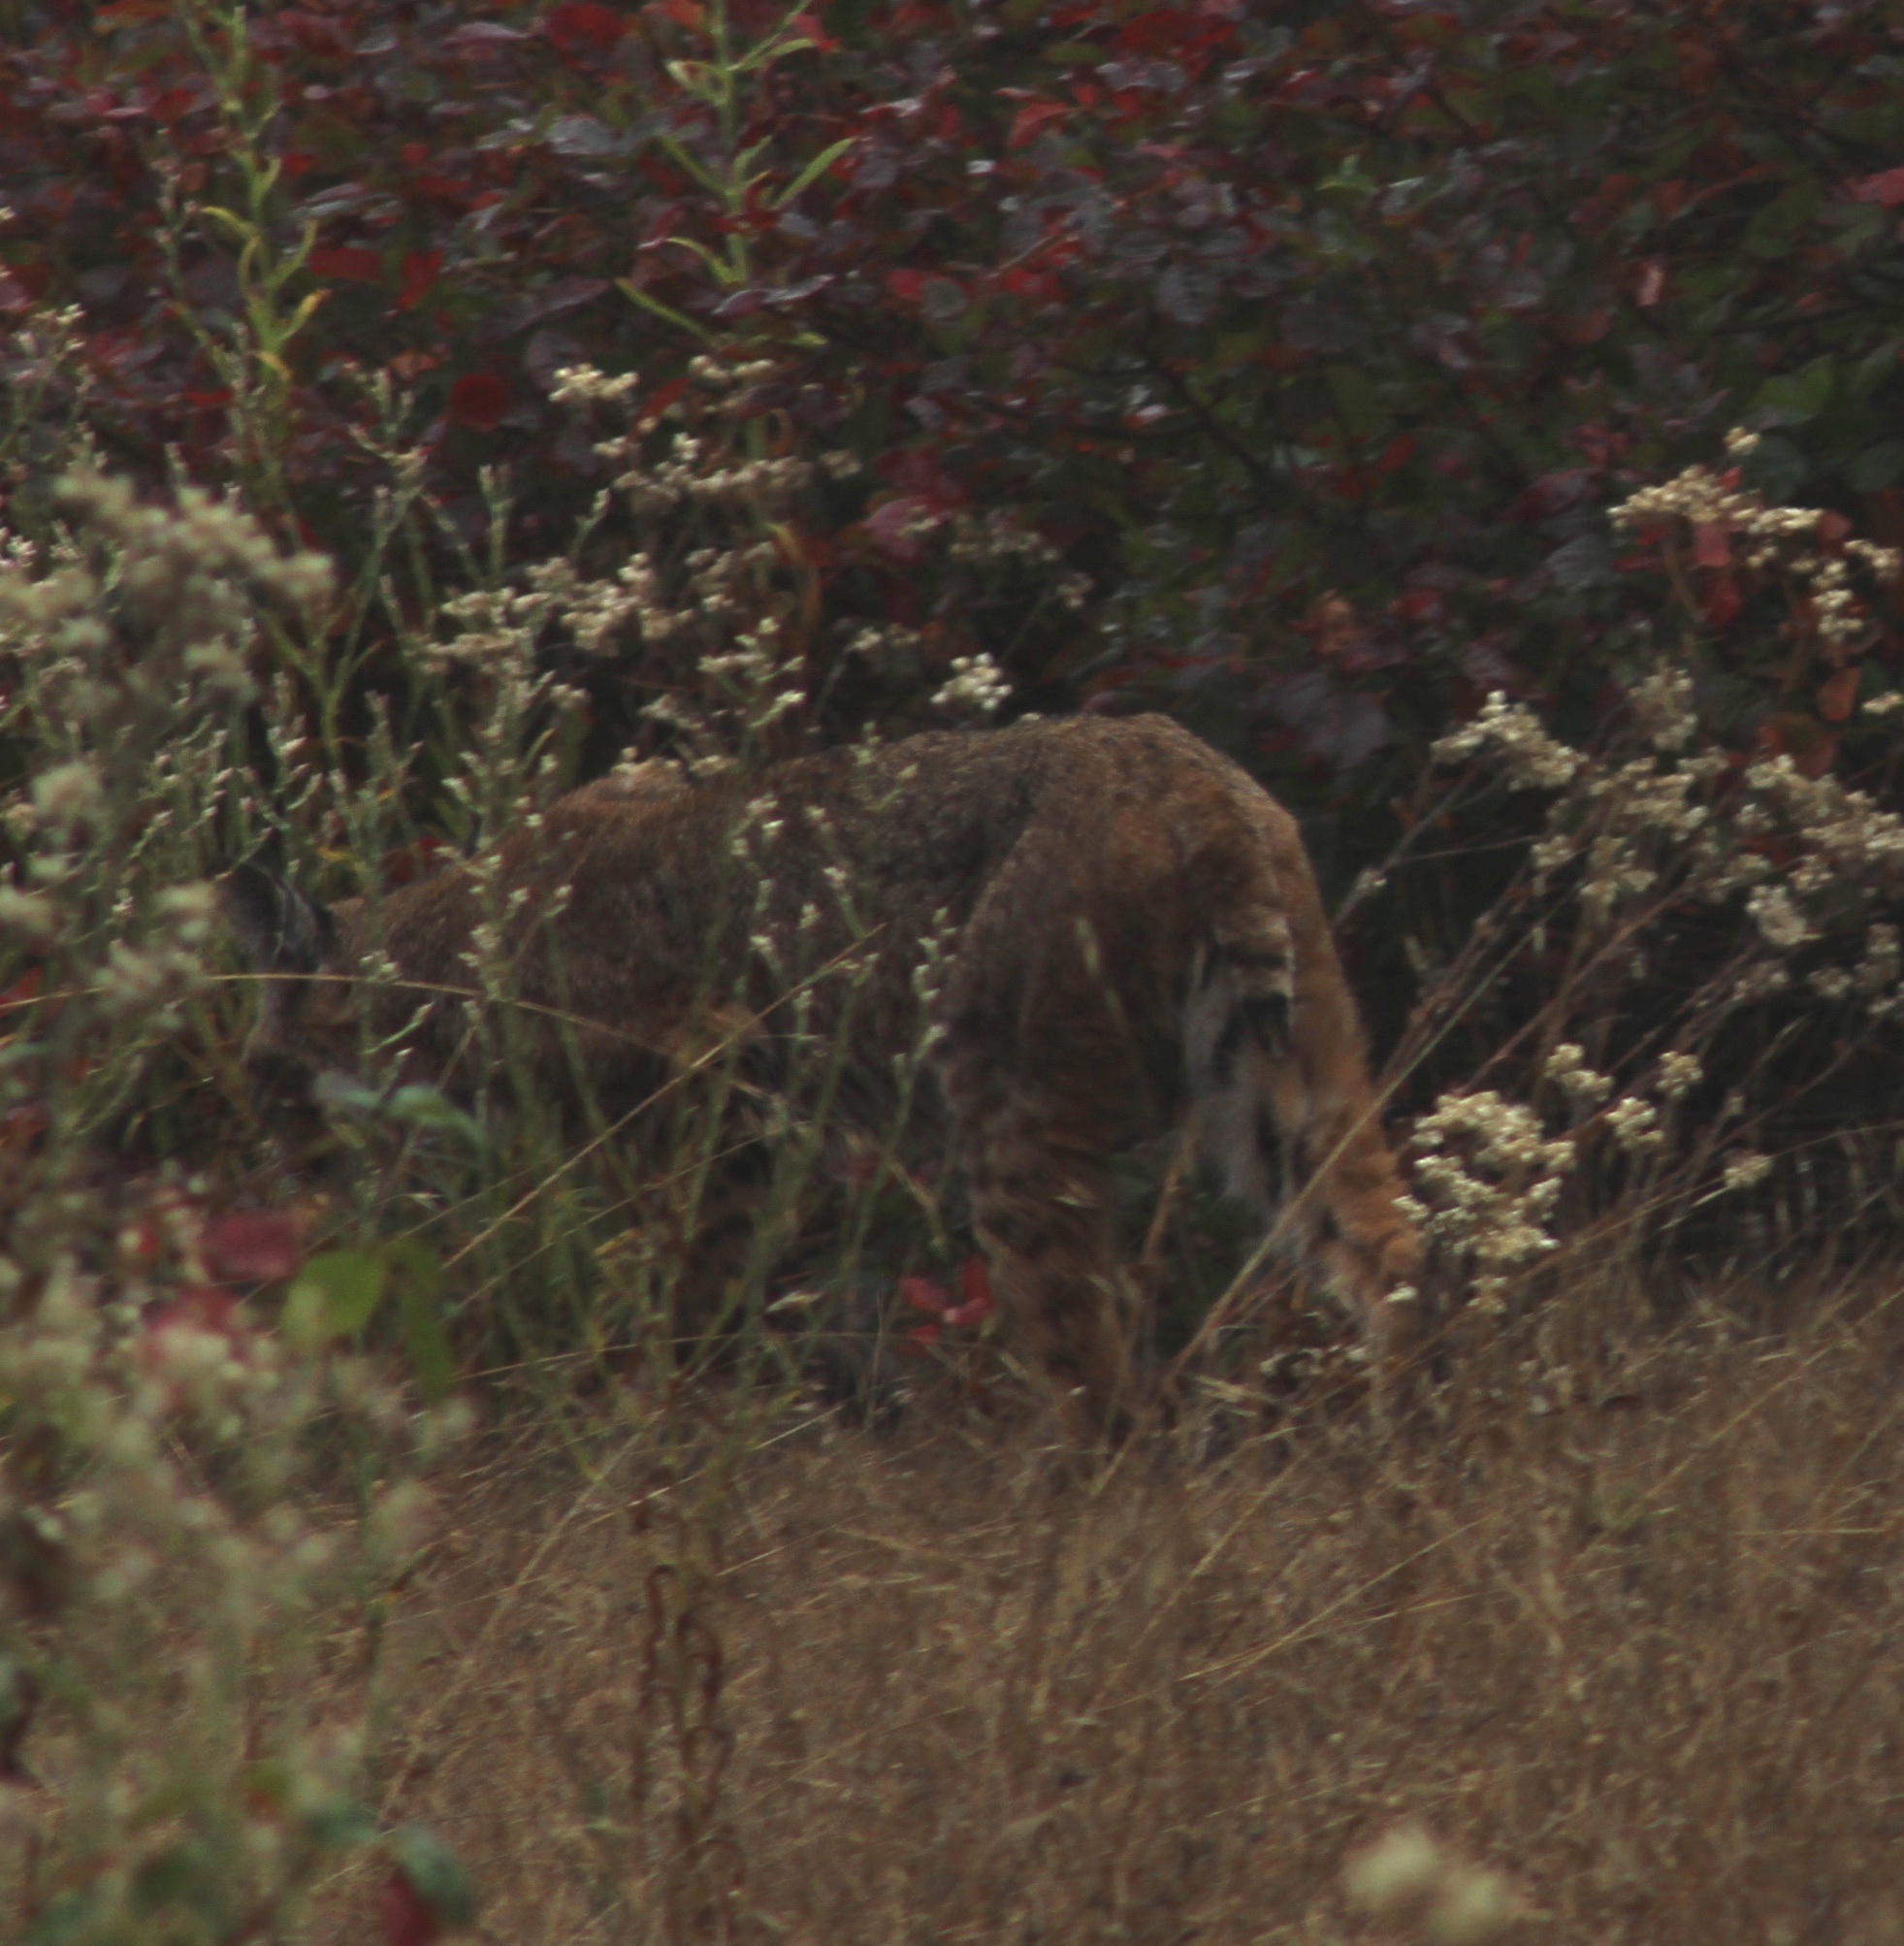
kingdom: Animalia
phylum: Chordata
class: Mammalia
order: Carnivora
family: Felidae
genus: Lynx
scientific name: Lynx rufus
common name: Bobcat
